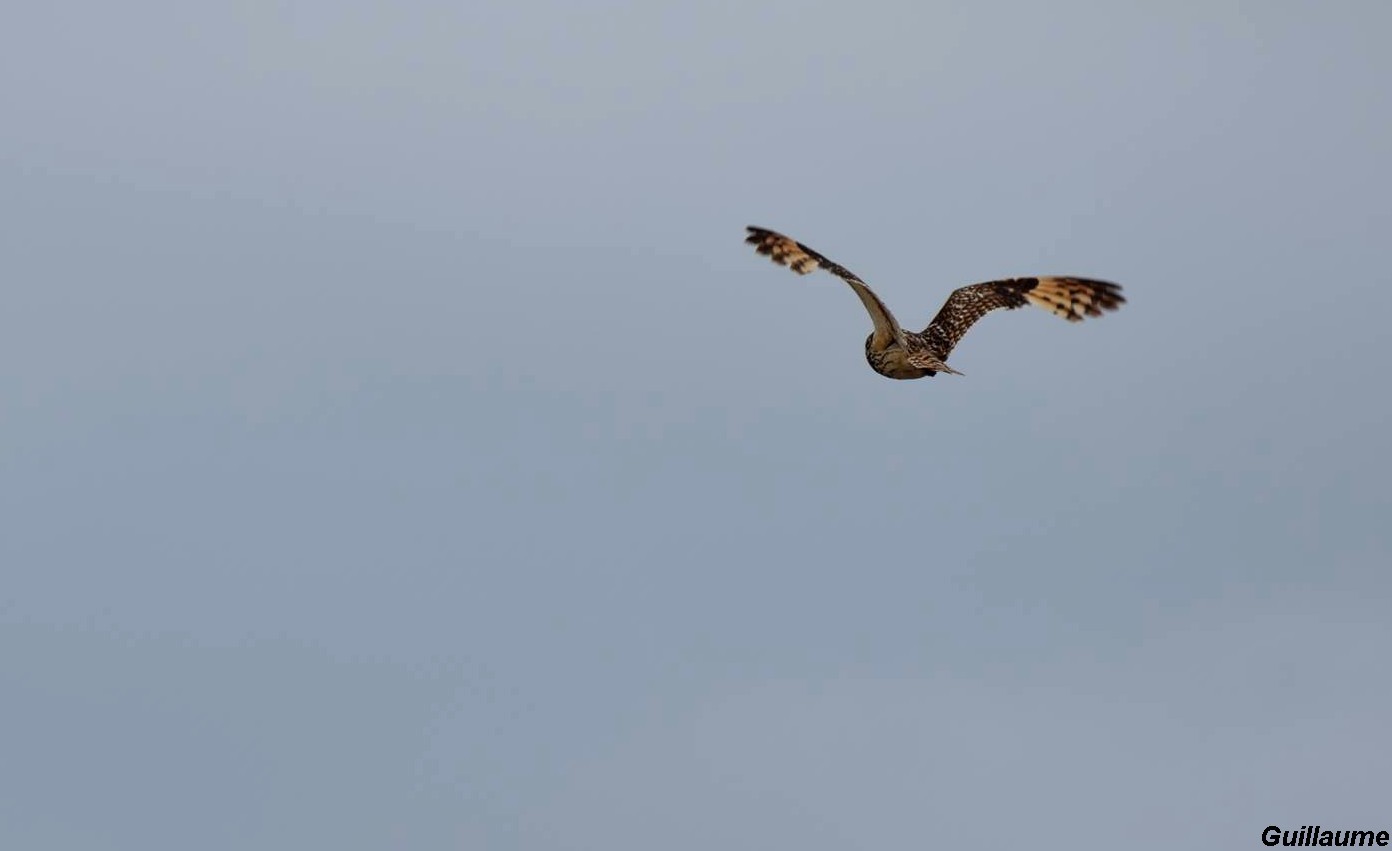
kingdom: Animalia
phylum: Chordata
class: Aves
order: Strigiformes
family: Strigidae
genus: Asio
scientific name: Asio flammeus
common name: Short-eared owl
